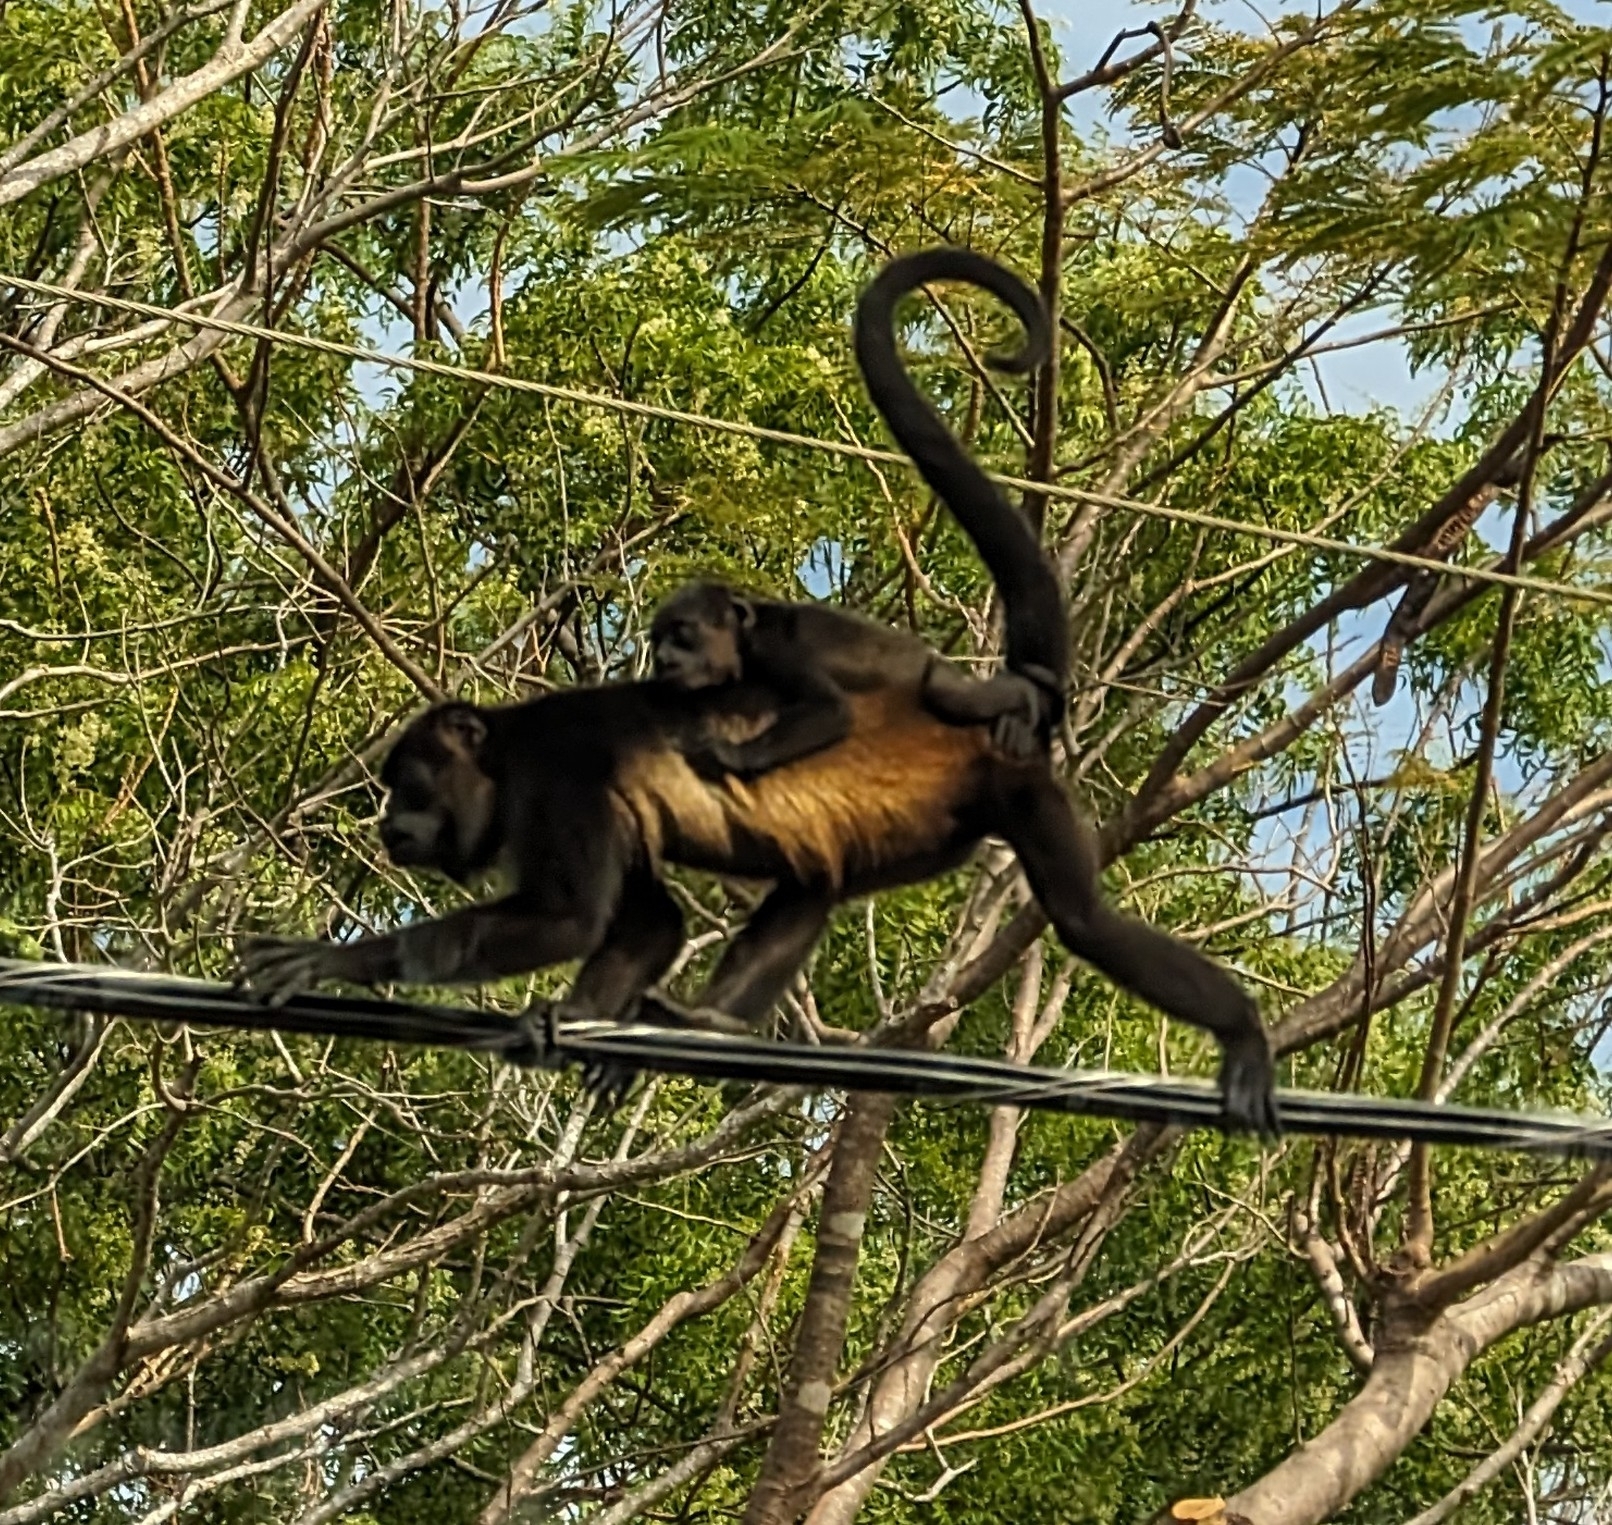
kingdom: Animalia
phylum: Chordata
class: Mammalia
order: Primates
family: Atelidae
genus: Alouatta
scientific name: Alouatta palliata
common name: Mantled howler
